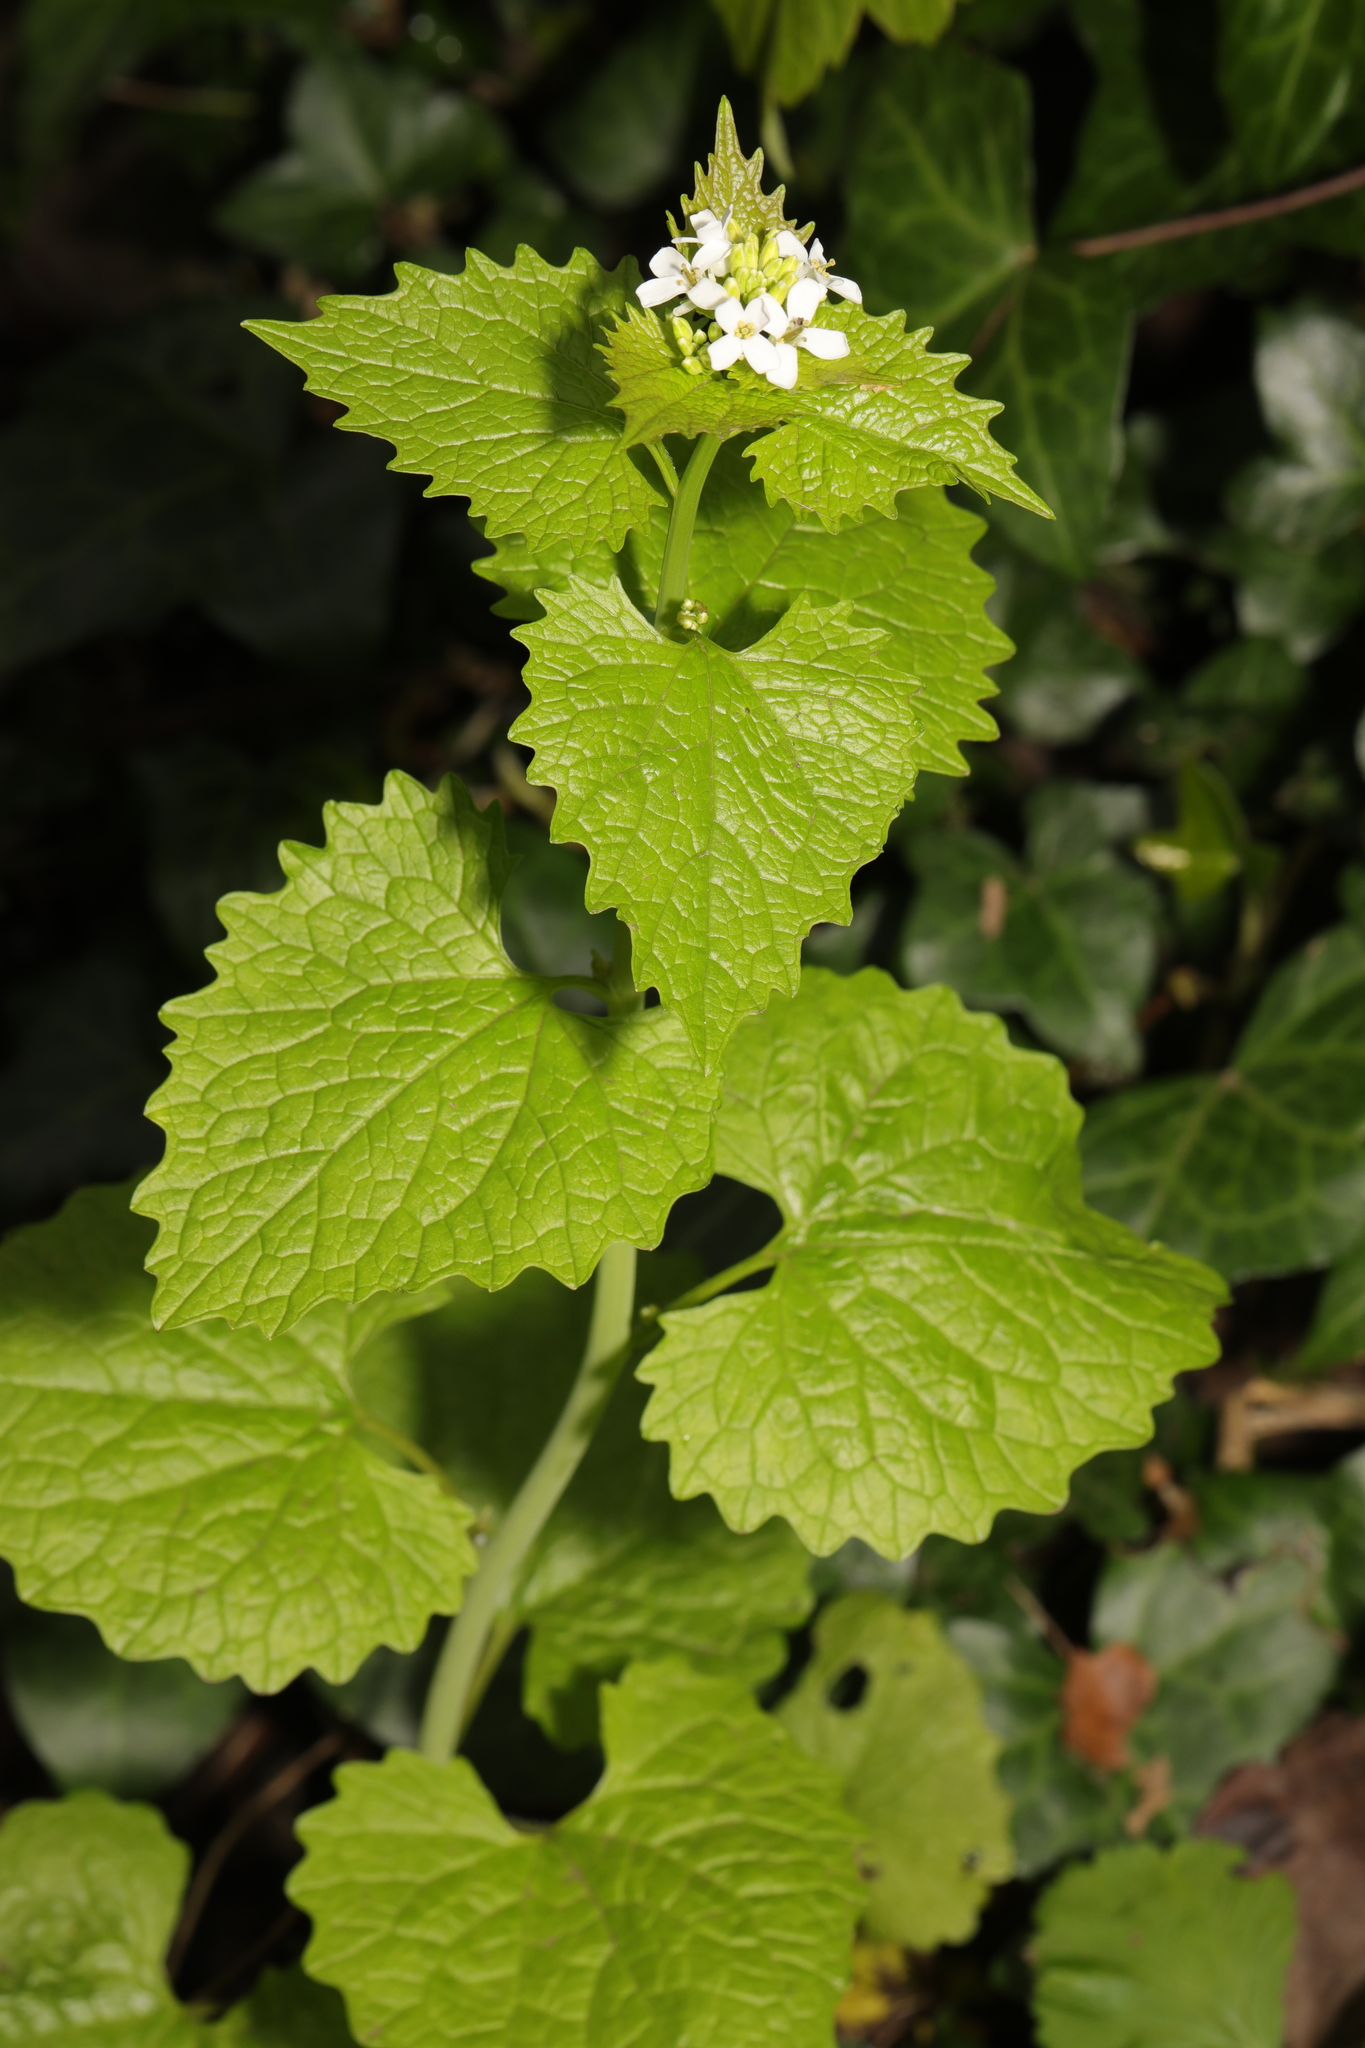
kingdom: Plantae
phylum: Tracheophyta
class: Magnoliopsida
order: Brassicales
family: Brassicaceae
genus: Alliaria
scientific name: Alliaria petiolata
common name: Garlic mustard
